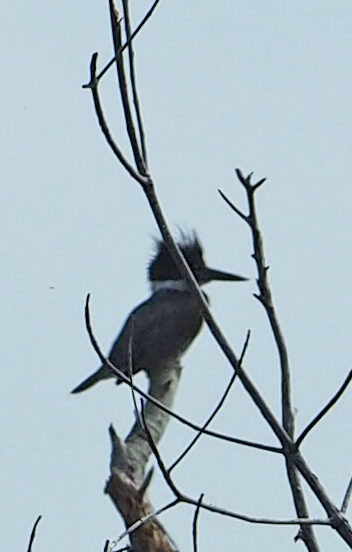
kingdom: Animalia
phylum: Chordata
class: Aves
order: Coraciiformes
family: Alcedinidae
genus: Megaceryle
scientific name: Megaceryle alcyon
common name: Belted kingfisher
